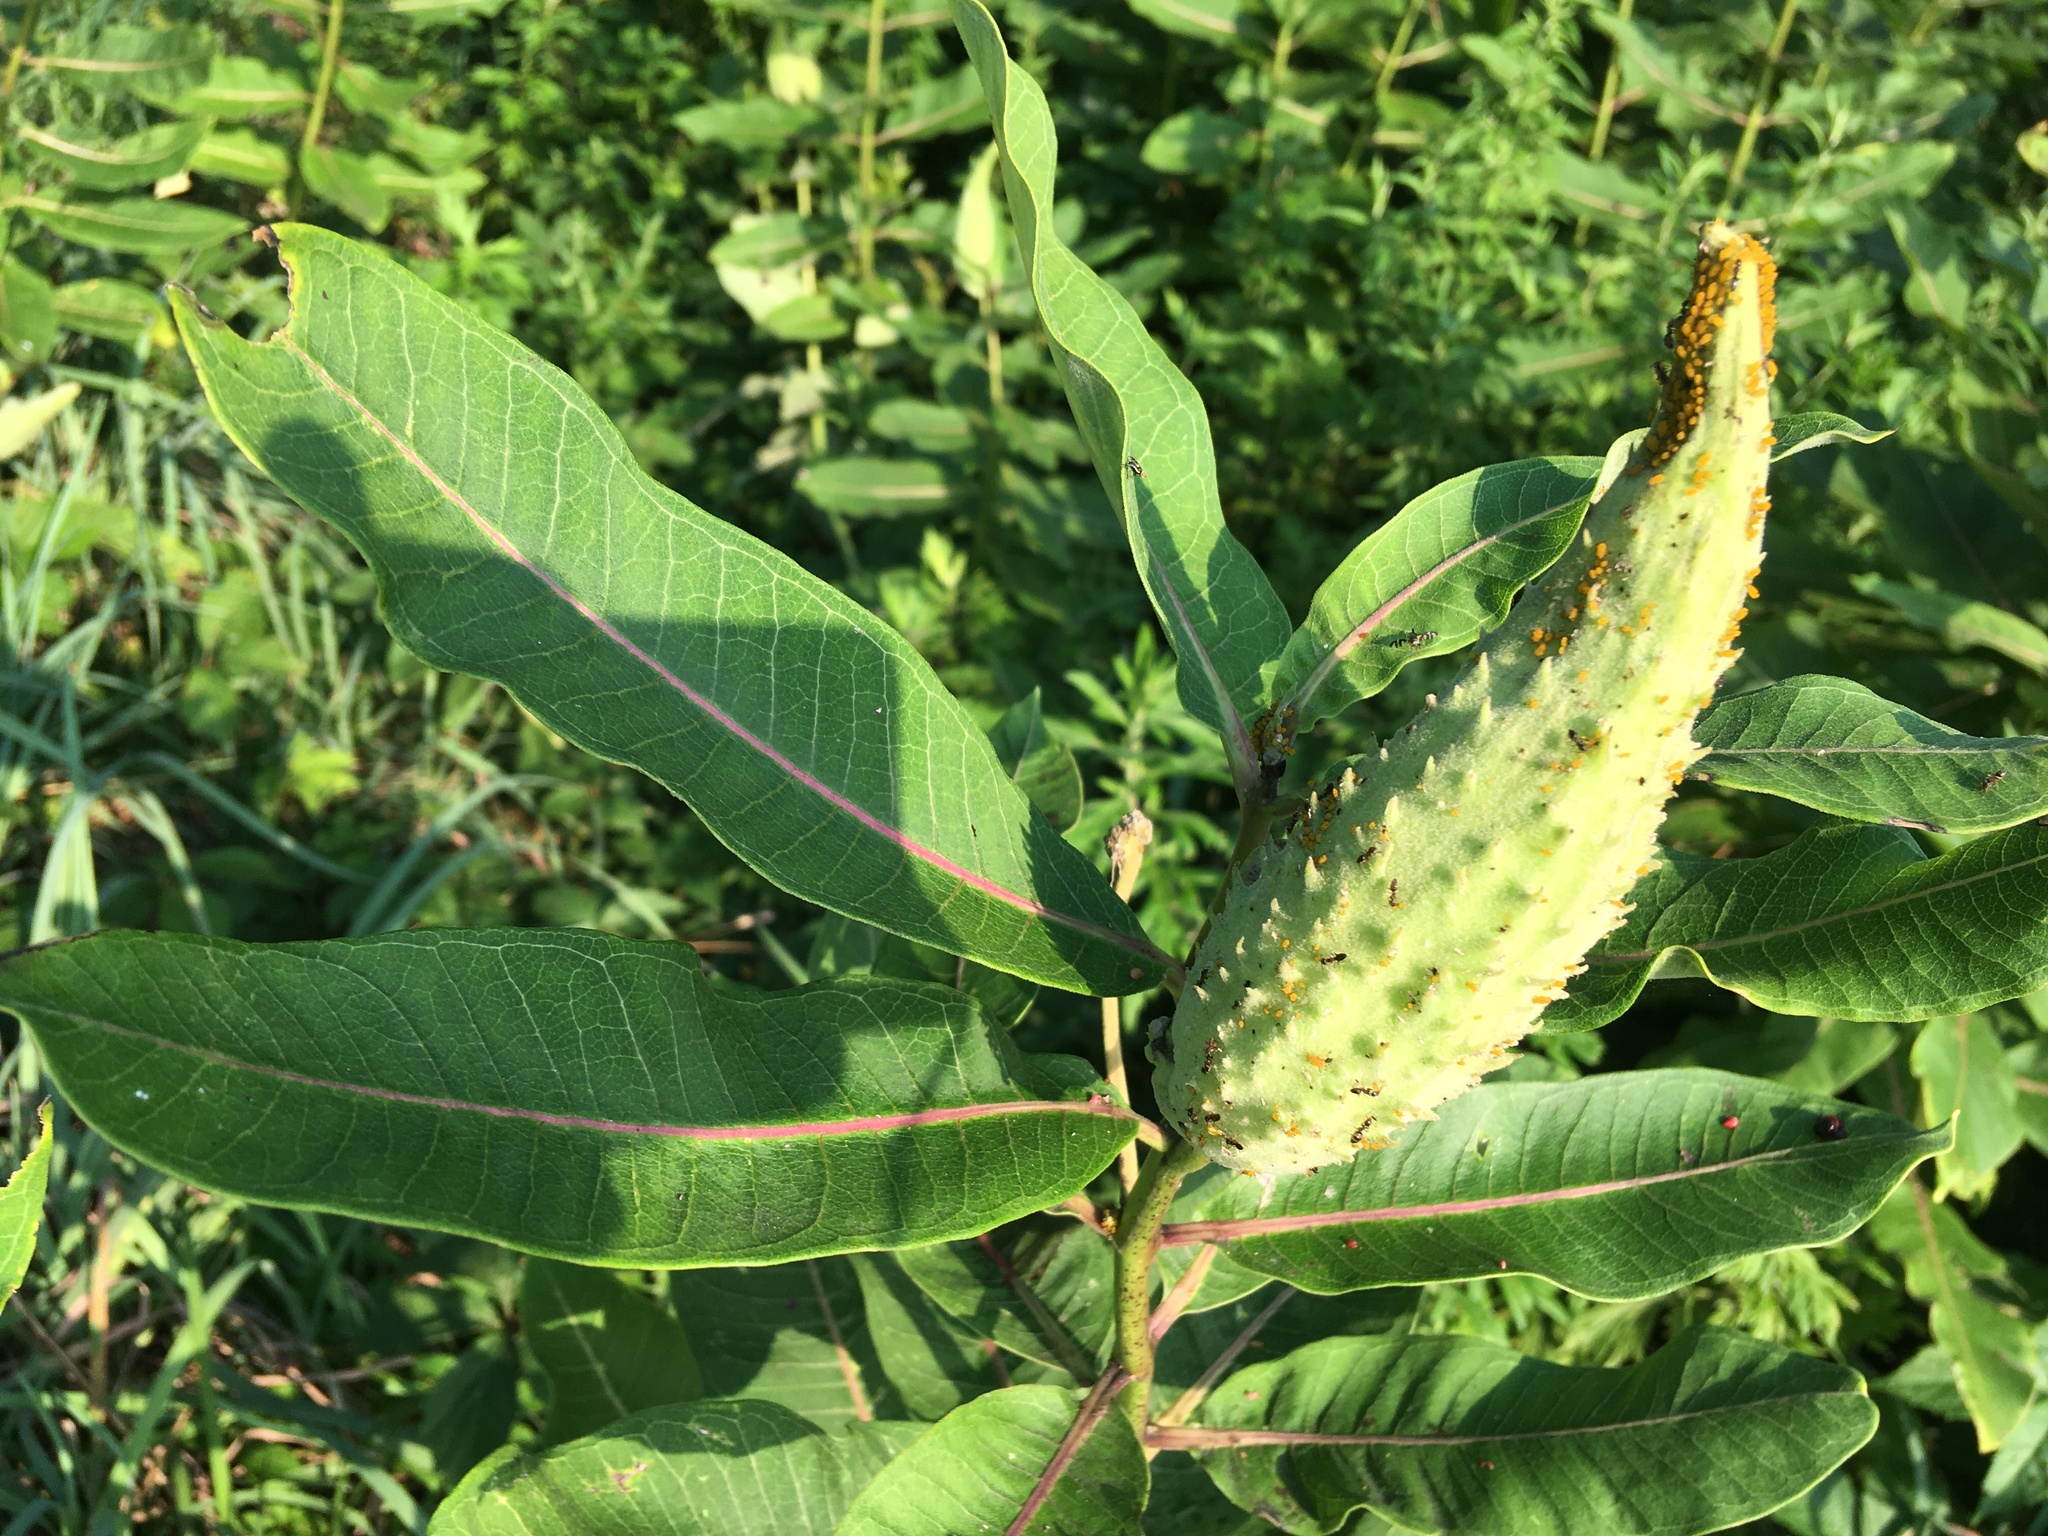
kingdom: Plantae
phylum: Tracheophyta
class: Magnoliopsida
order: Gentianales
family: Apocynaceae
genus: Asclepias
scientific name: Asclepias syriaca
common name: Common milkweed
